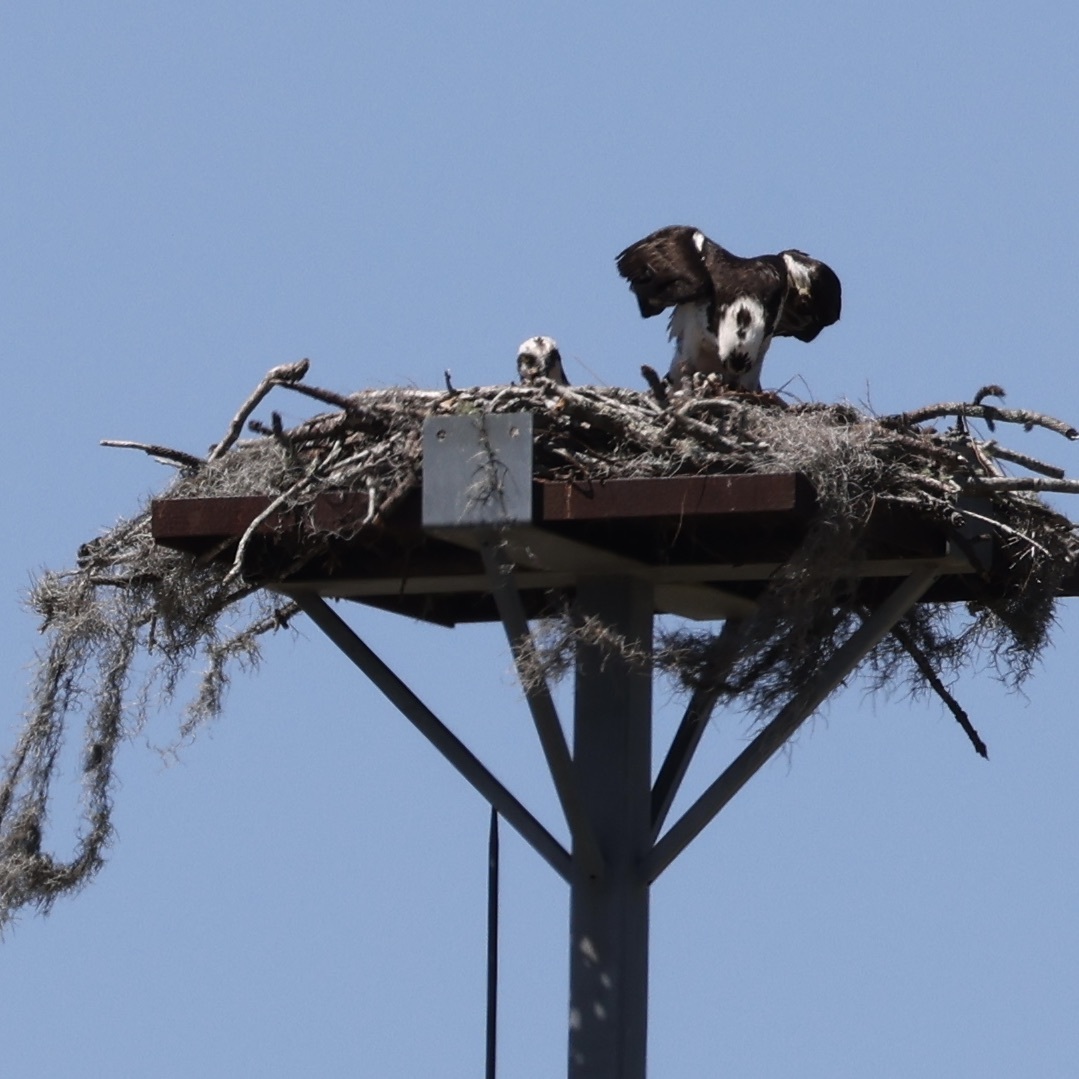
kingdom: Animalia
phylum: Chordata
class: Aves
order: Accipitriformes
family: Pandionidae
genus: Pandion
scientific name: Pandion haliaetus
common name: Osprey
